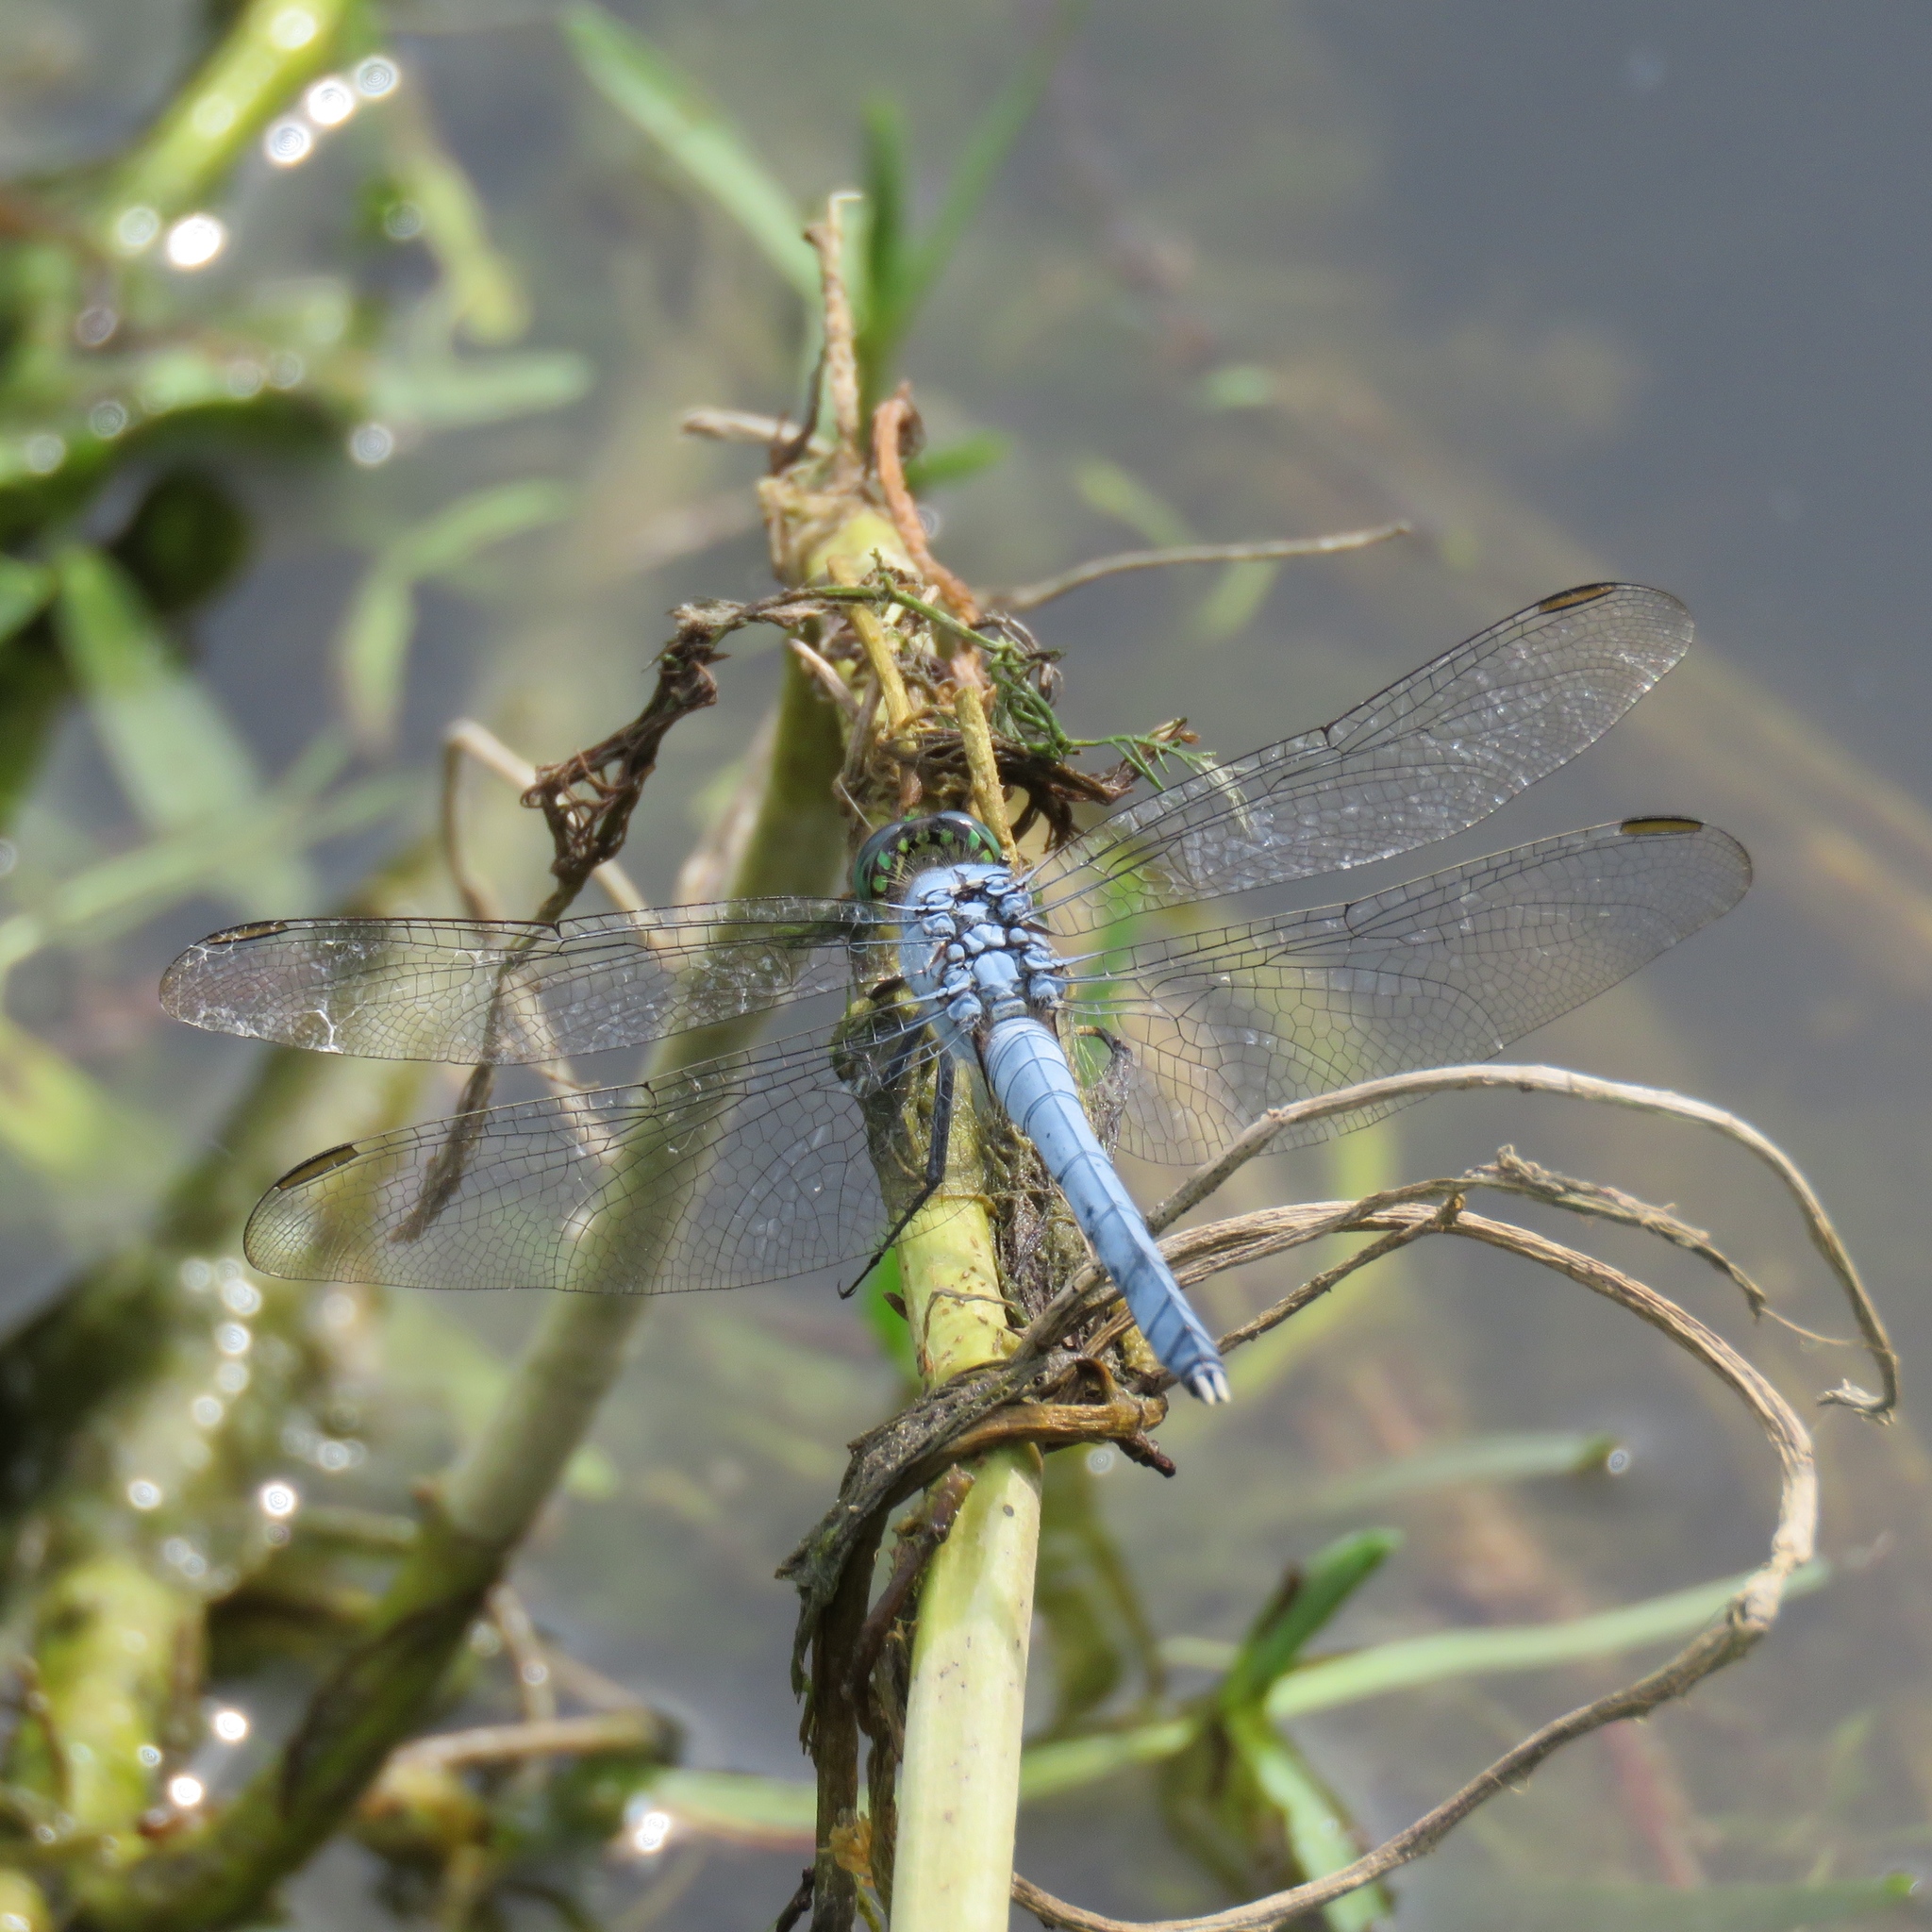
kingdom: Animalia
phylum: Arthropoda
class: Insecta
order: Odonata
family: Libellulidae
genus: Erythemis
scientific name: Erythemis simplicicollis
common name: Eastern pondhawk
